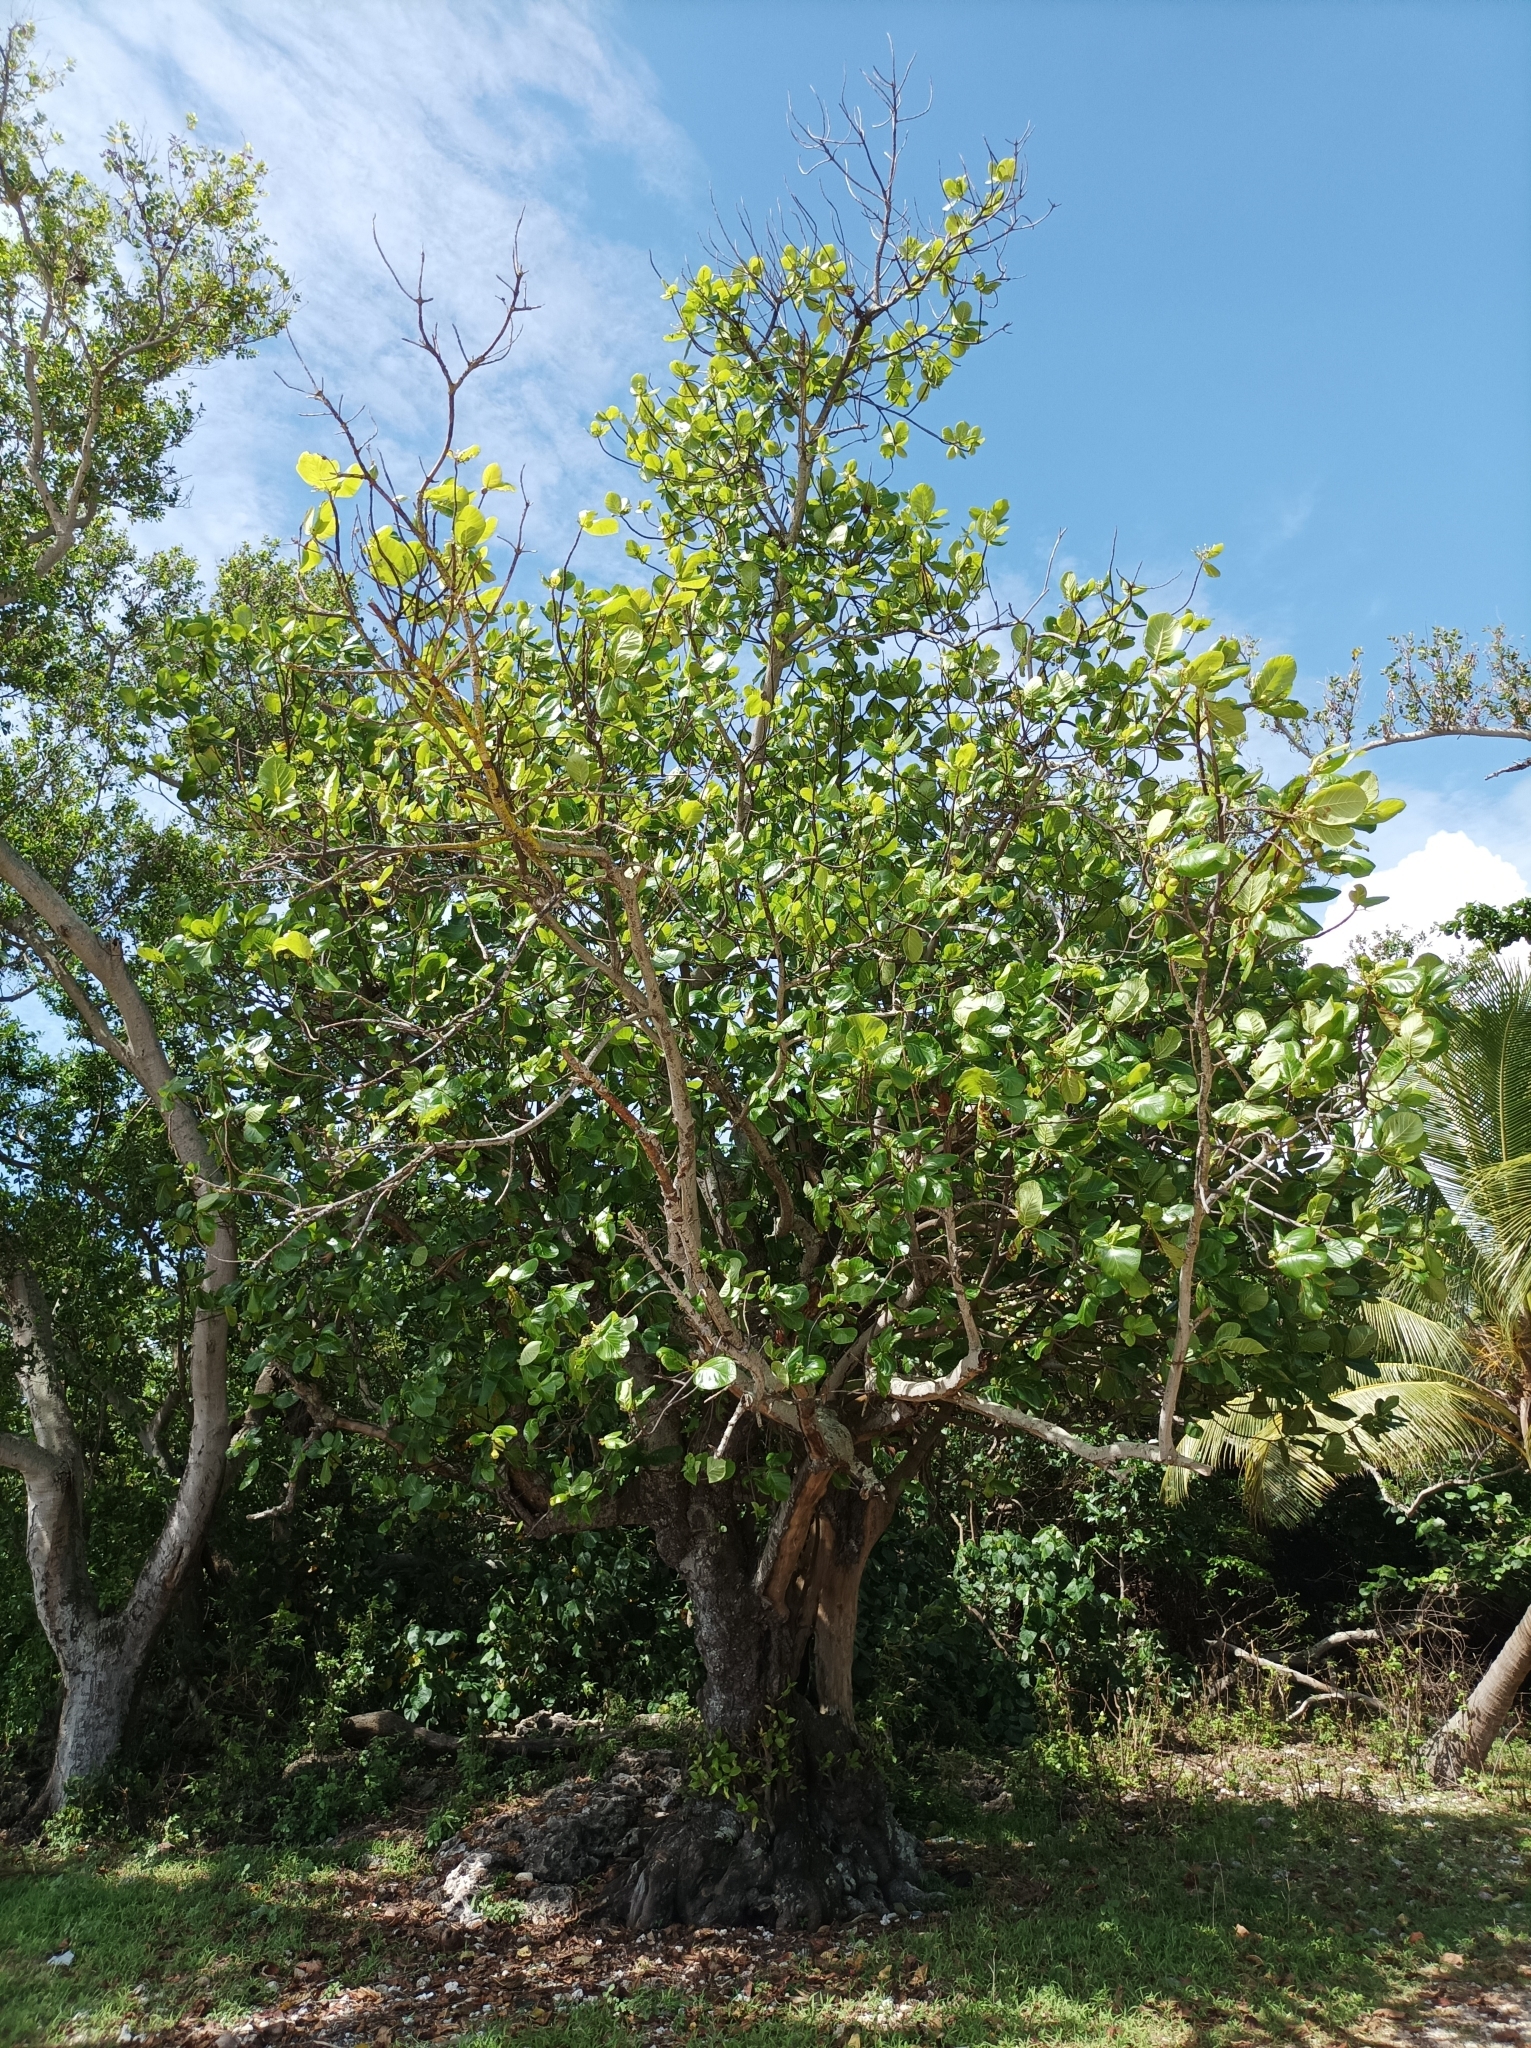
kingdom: Plantae
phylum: Tracheophyta
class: Magnoliopsida
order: Gentianales
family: Rubiaceae
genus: Guettarda
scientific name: Guettarda speciosa
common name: Sea randa
